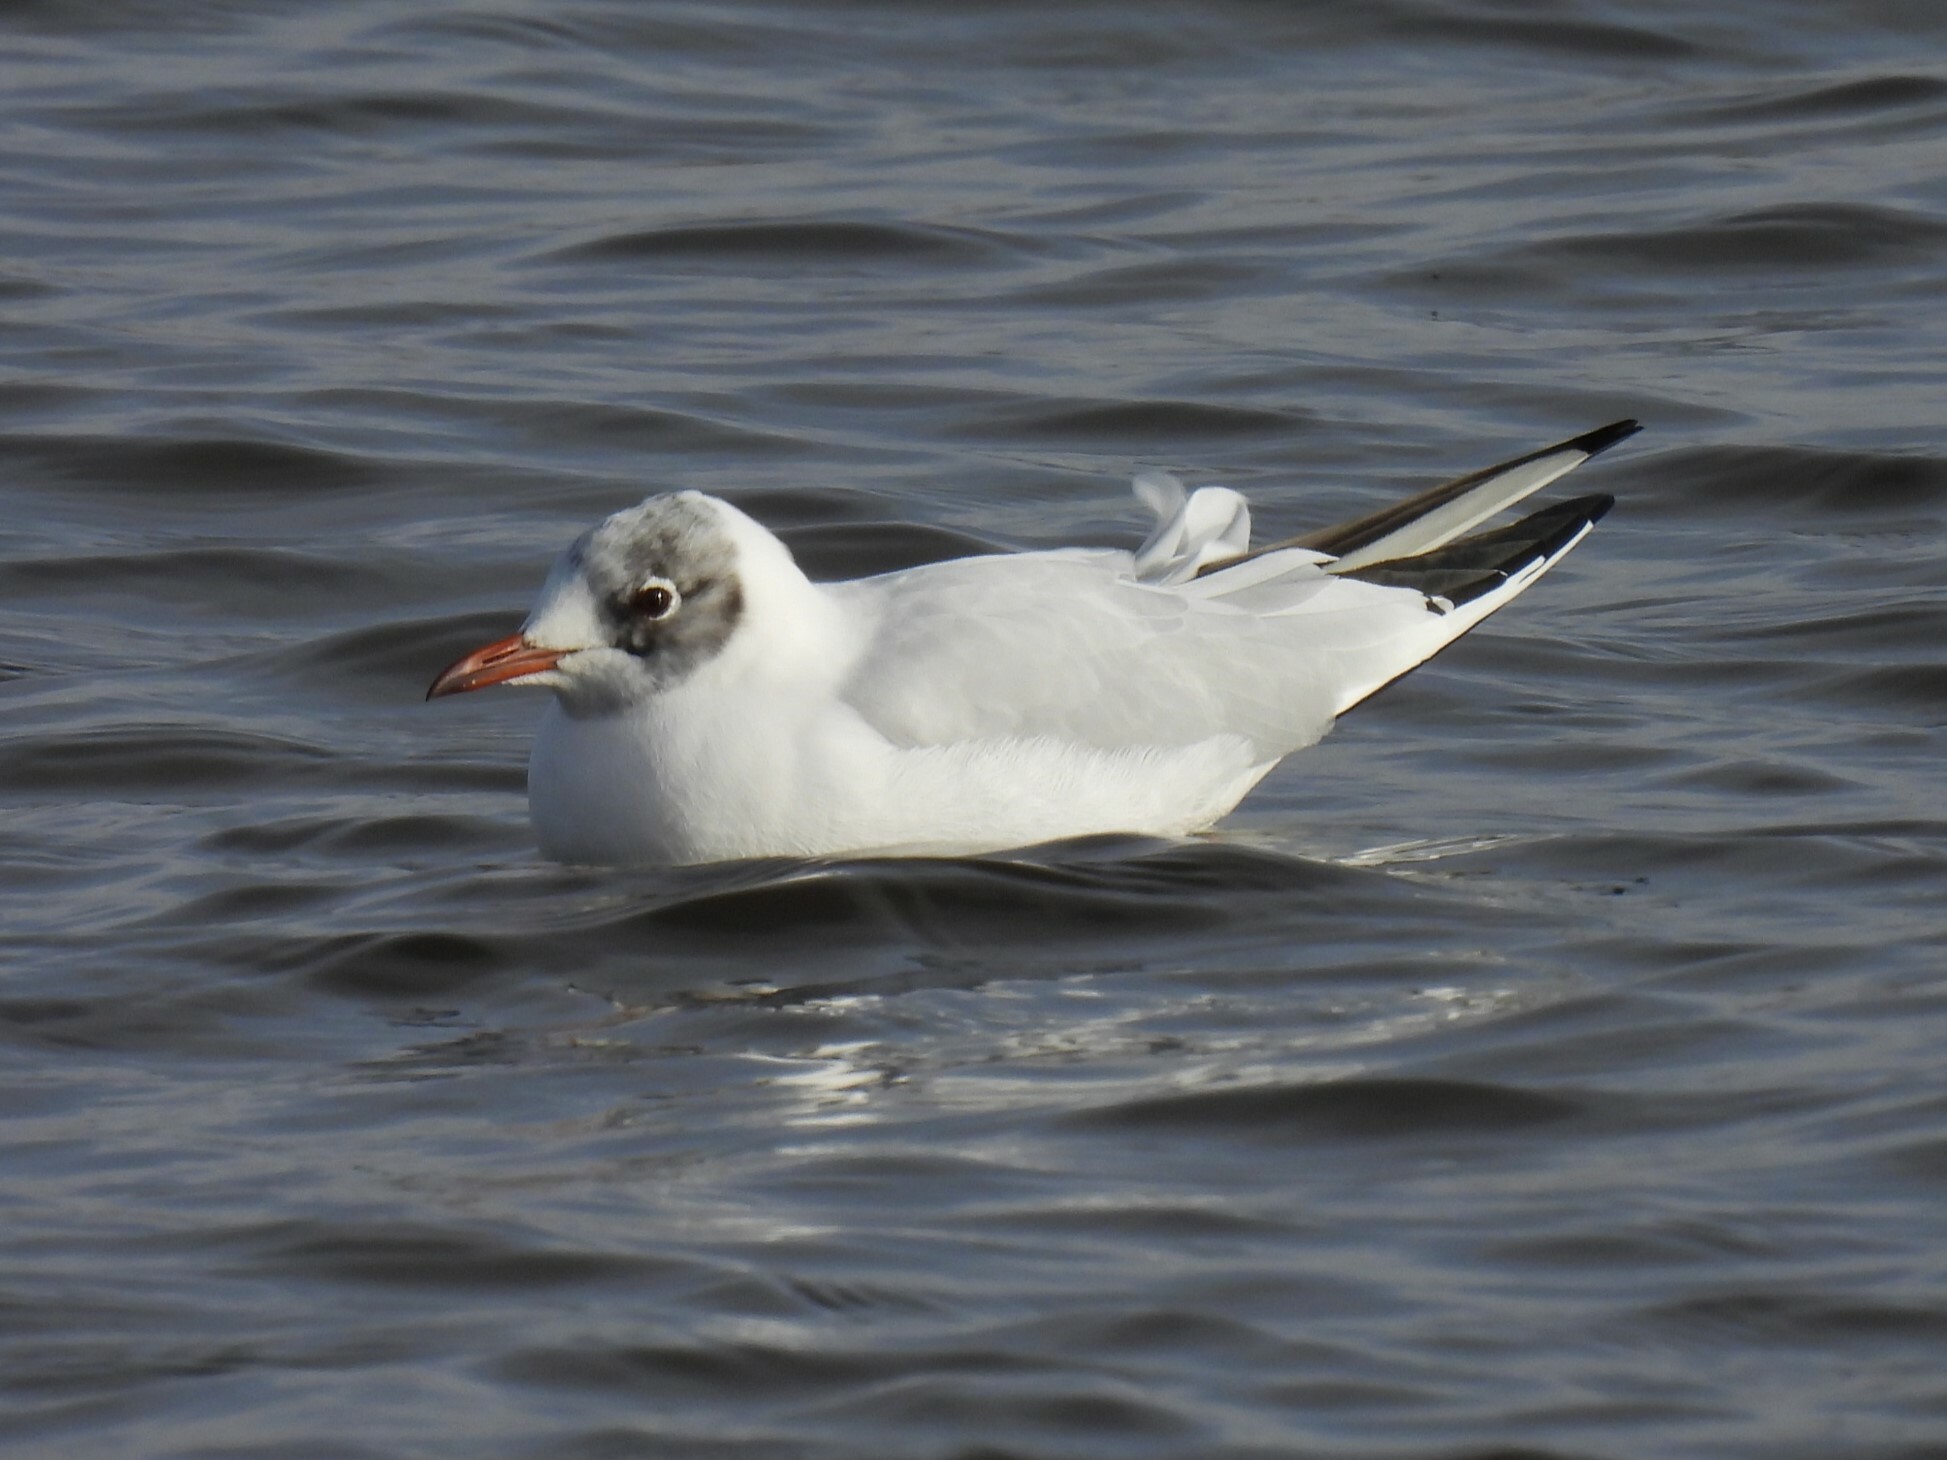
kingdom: Animalia
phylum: Chordata
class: Aves
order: Charadriiformes
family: Laridae
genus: Chroicocephalus
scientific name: Chroicocephalus ridibundus
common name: Black-headed gull
